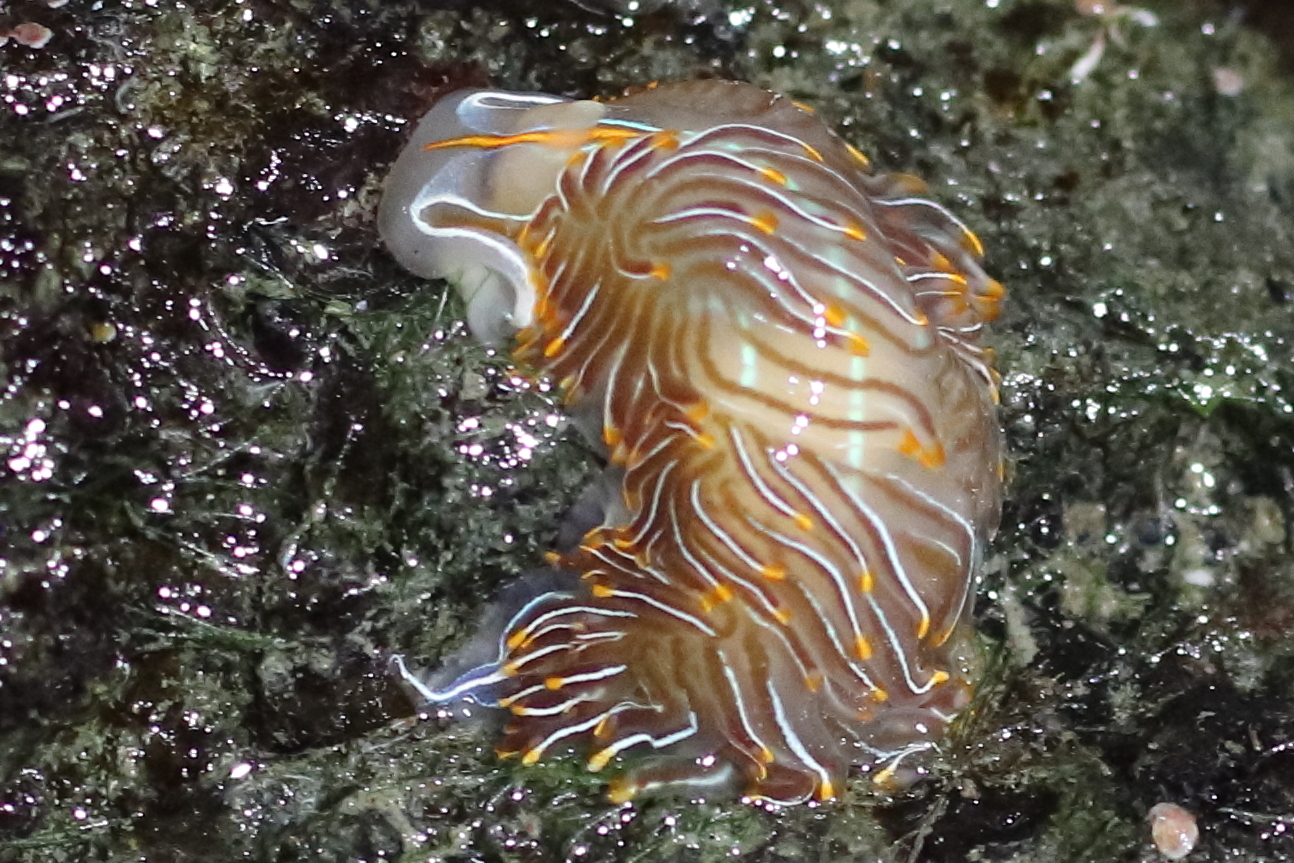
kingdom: Animalia
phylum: Mollusca
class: Gastropoda
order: Nudibranchia
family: Myrrhinidae
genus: Hermissenda
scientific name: Hermissenda crassicornis
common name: Hermissenda
